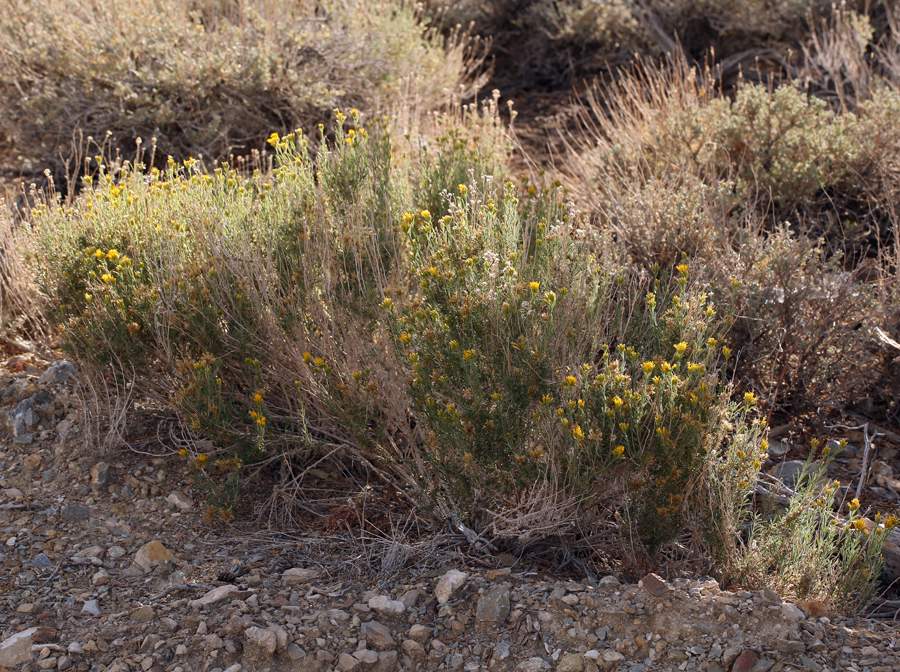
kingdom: Plantae
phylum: Tracheophyta
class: Magnoliopsida
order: Asterales
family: Asteraceae
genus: Chrysothamnus
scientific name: Chrysothamnus viscidiflorus
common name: Yellow rabbitbrush
